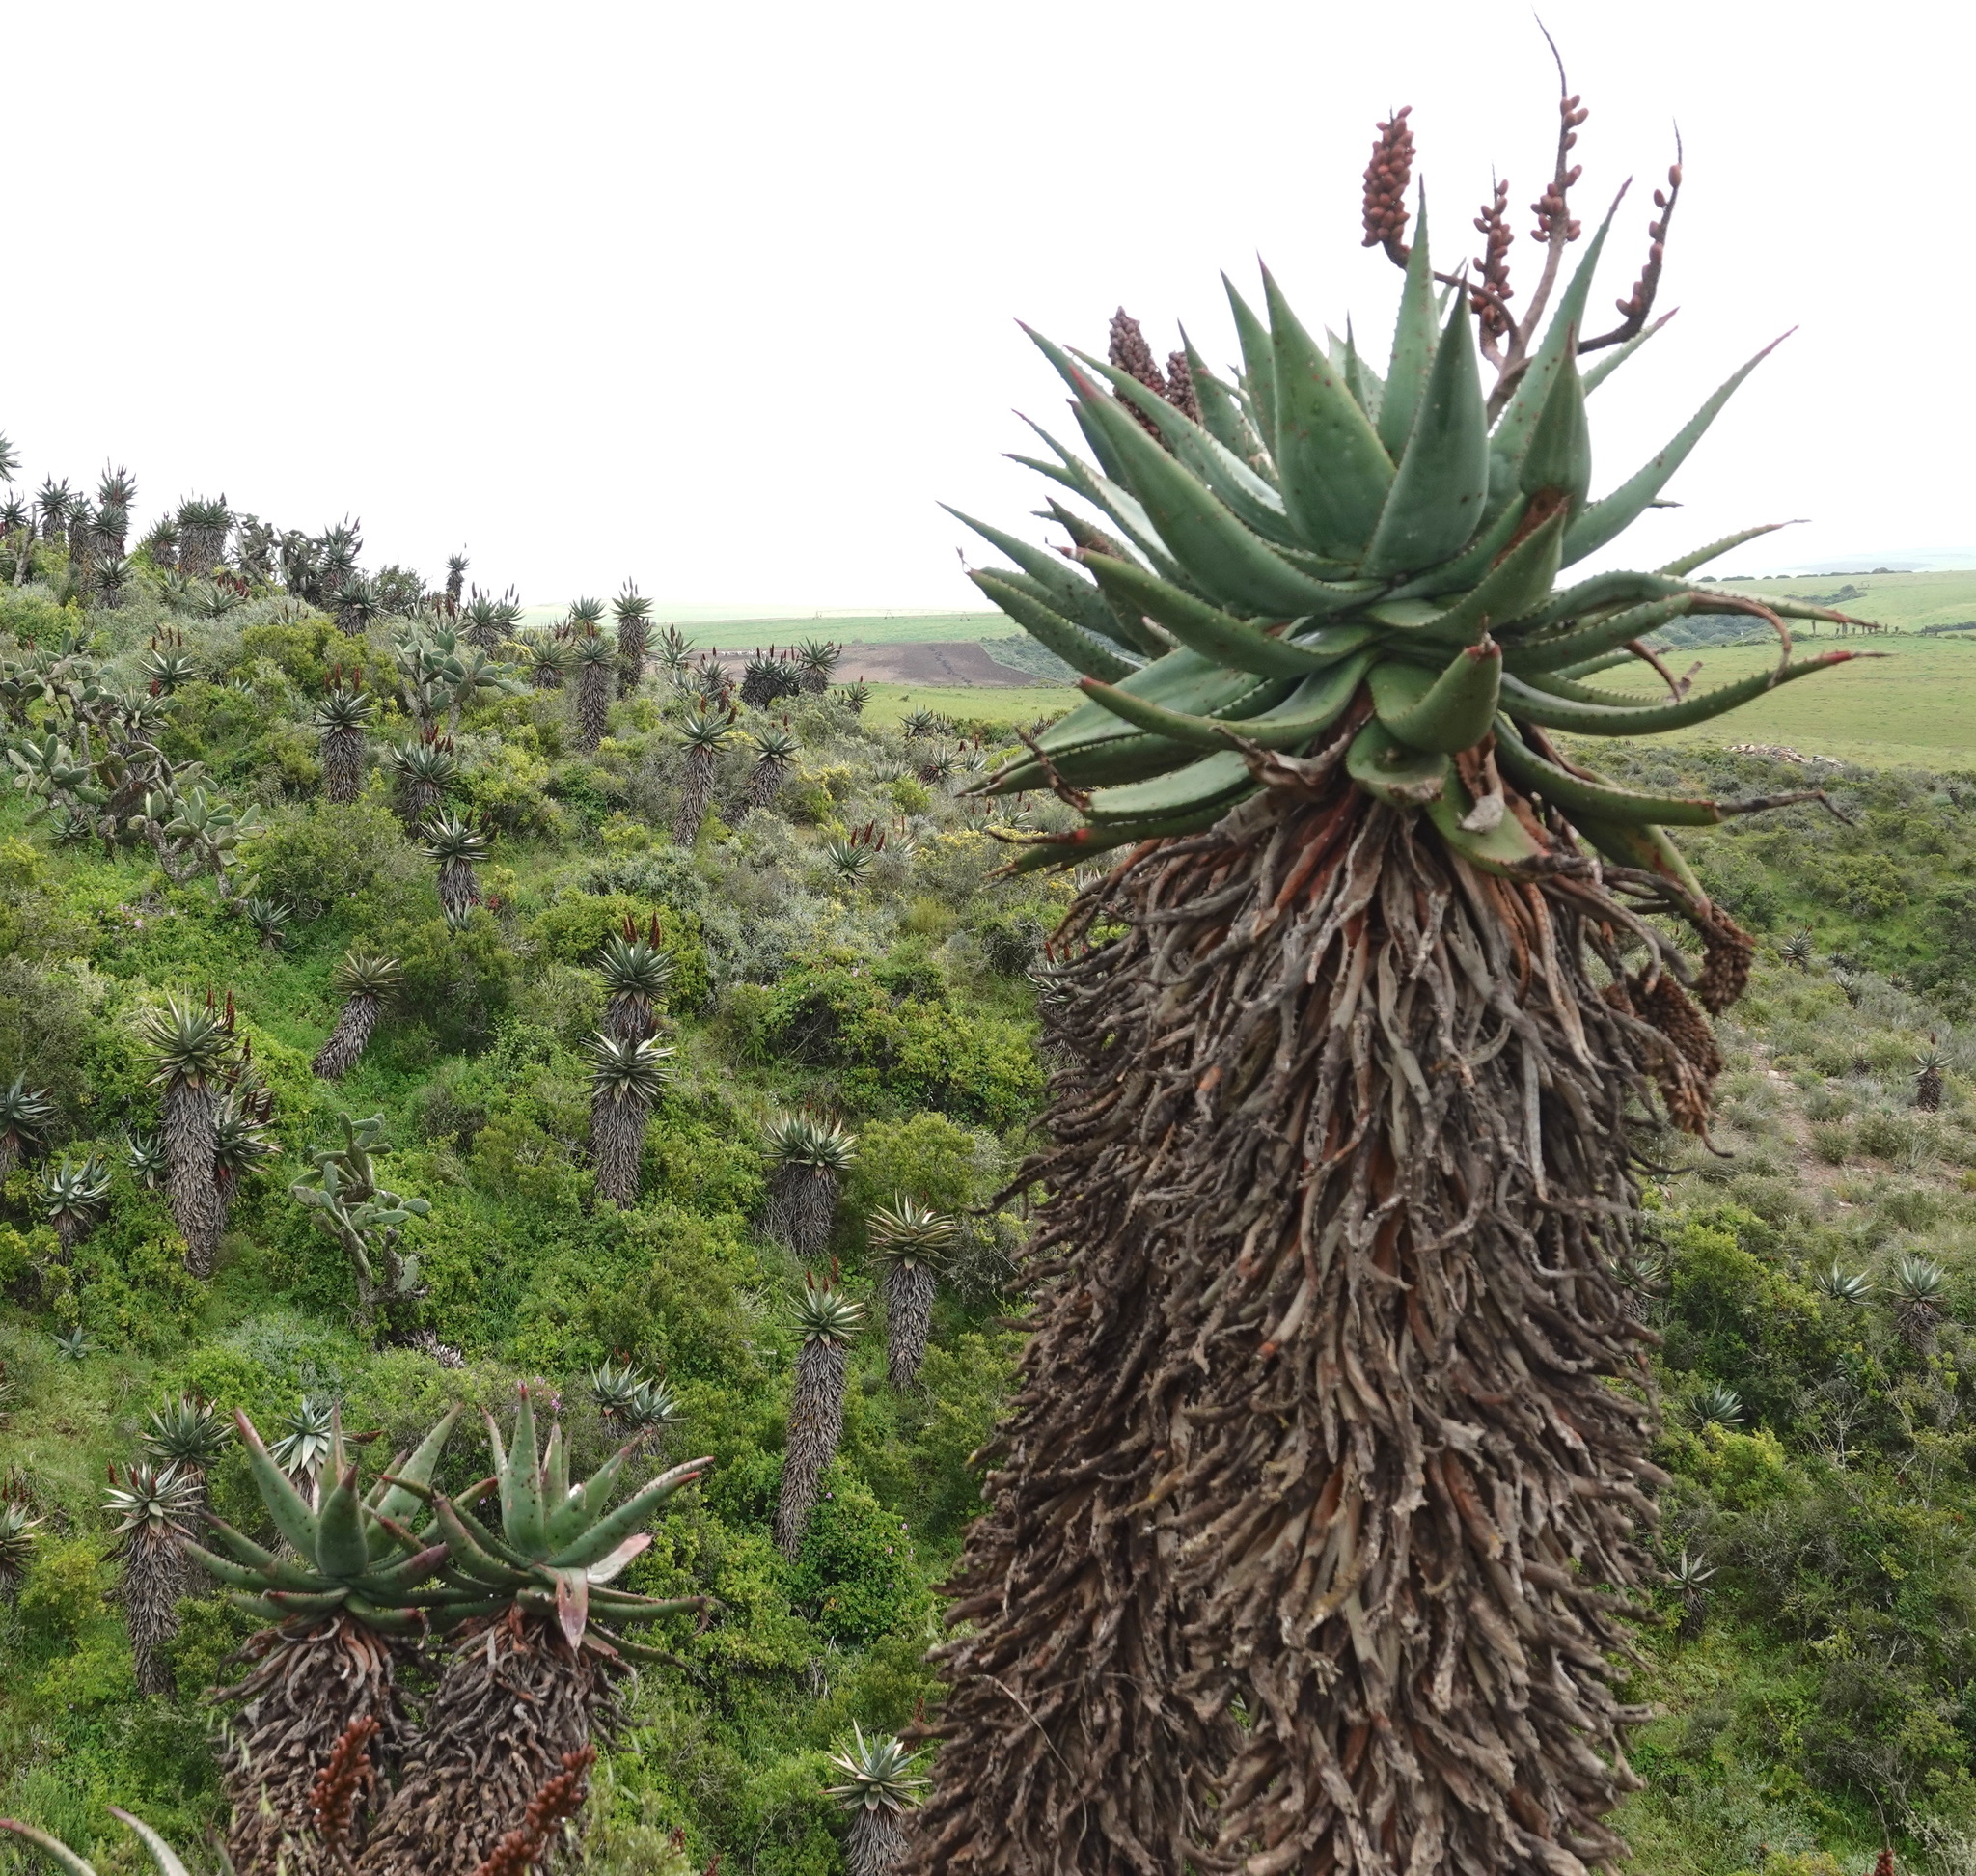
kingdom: Plantae
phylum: Tracheophyta
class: Liliopsida
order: Asparagales
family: Asphodelaceae
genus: Aloe
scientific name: Aloe ferox
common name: Bitter aloe
